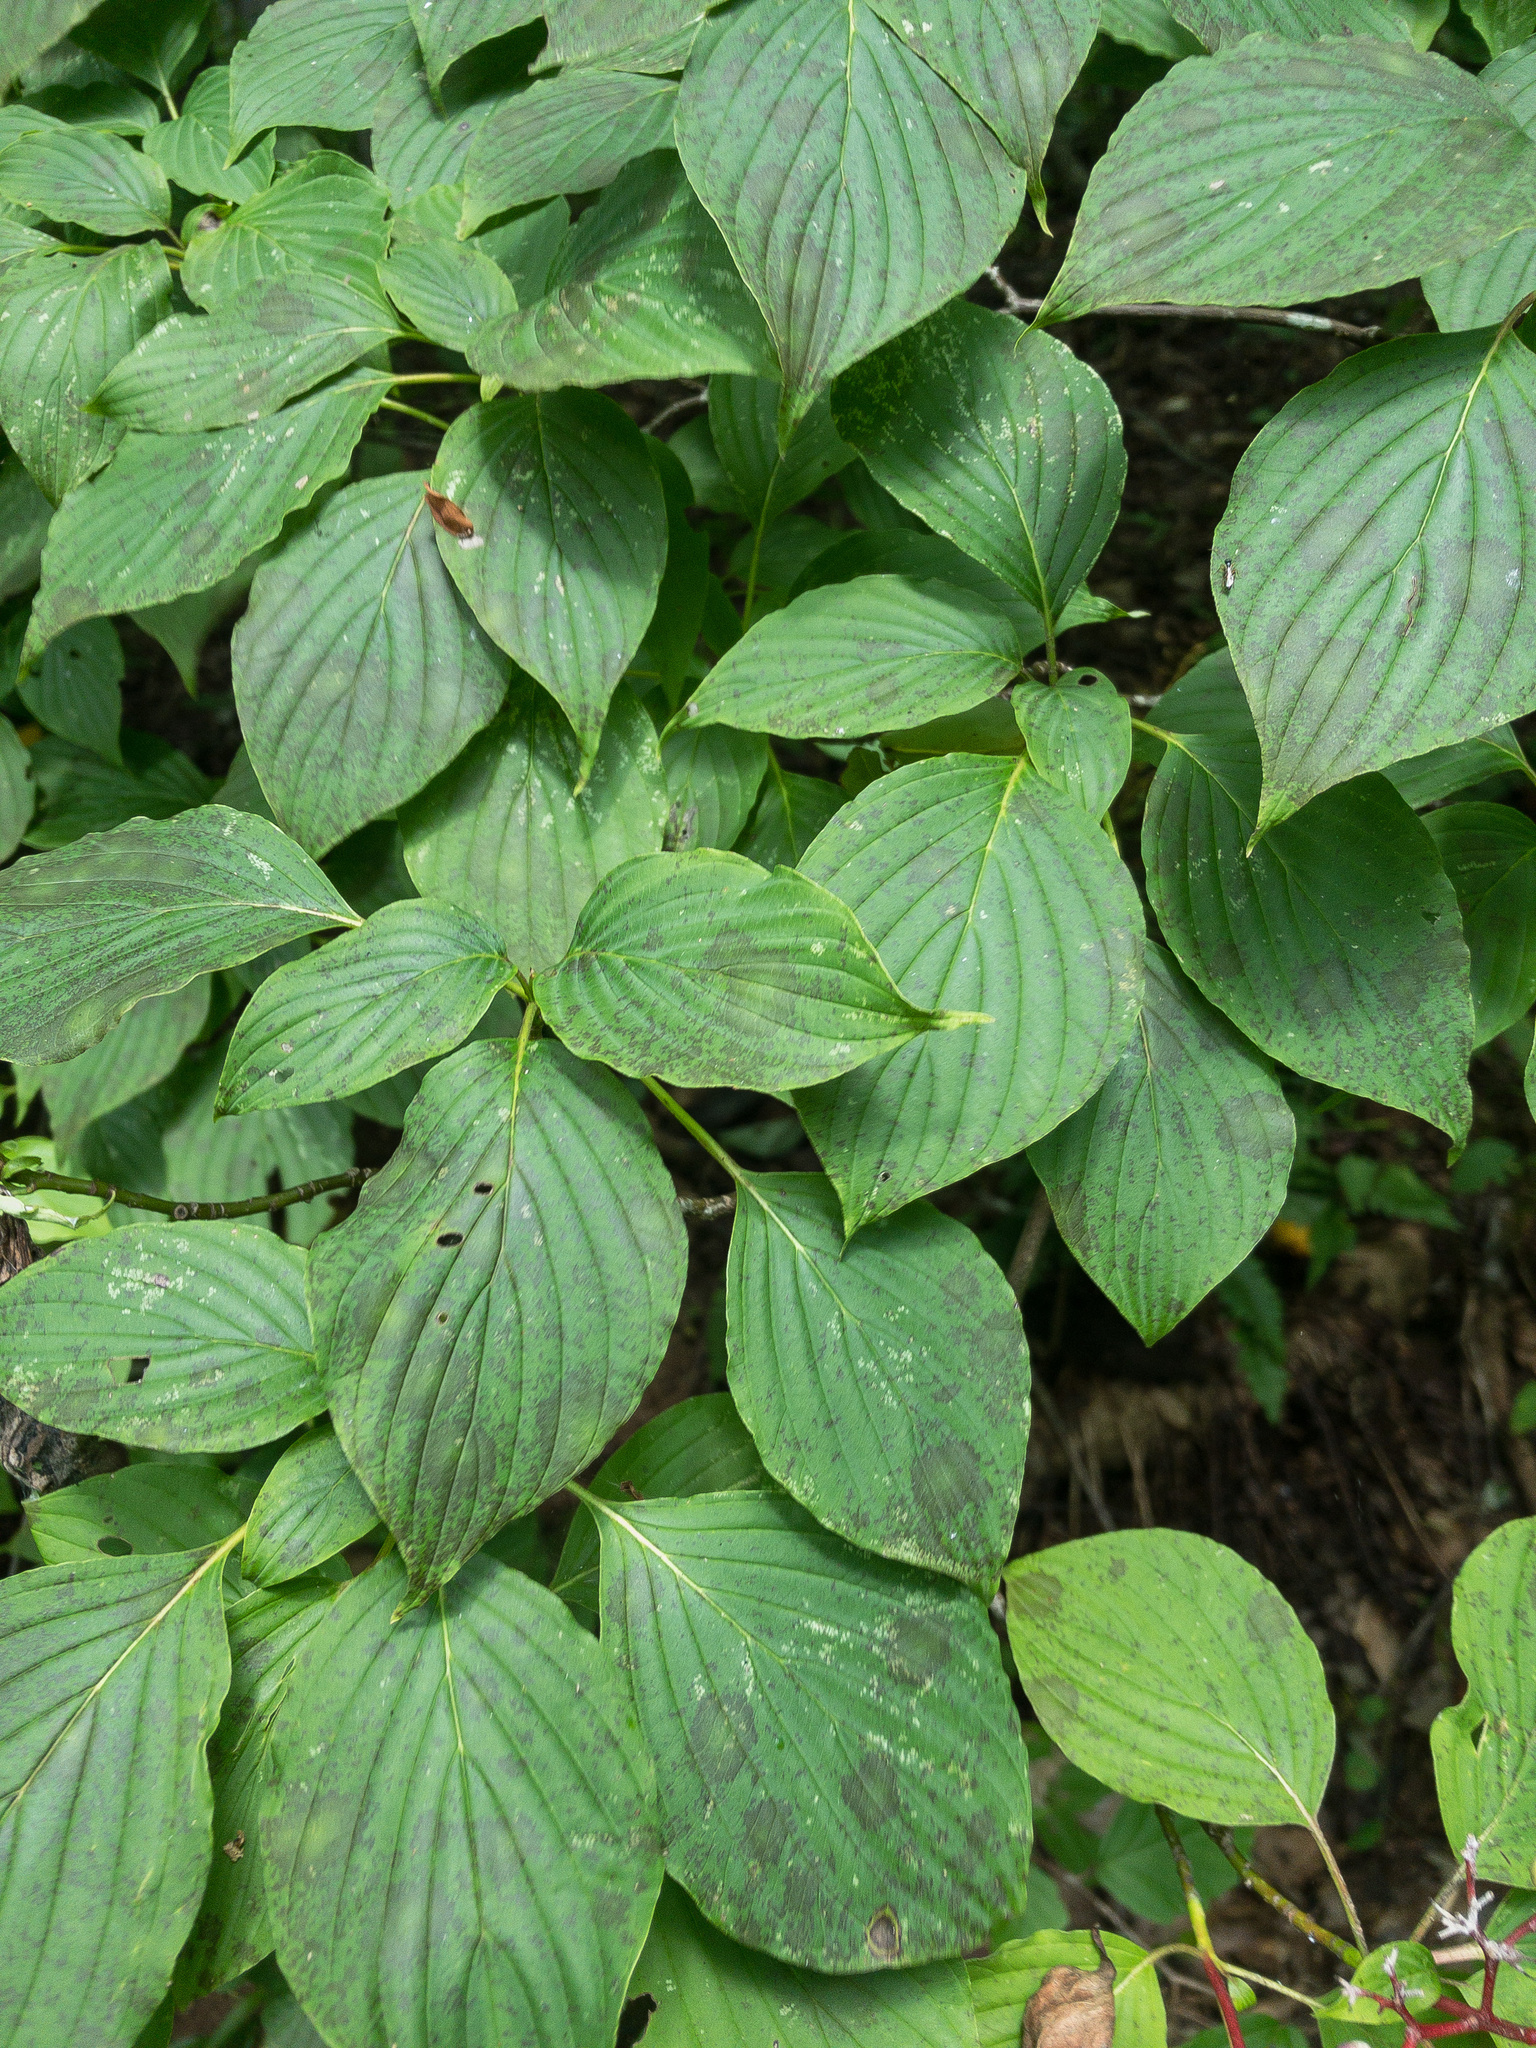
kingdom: Plantae
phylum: Tracheophyta
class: Magnoliopsida
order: Cornales
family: Cornaceae
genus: Cornus
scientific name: Cornus alternifolia
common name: Pagoda dogwood
